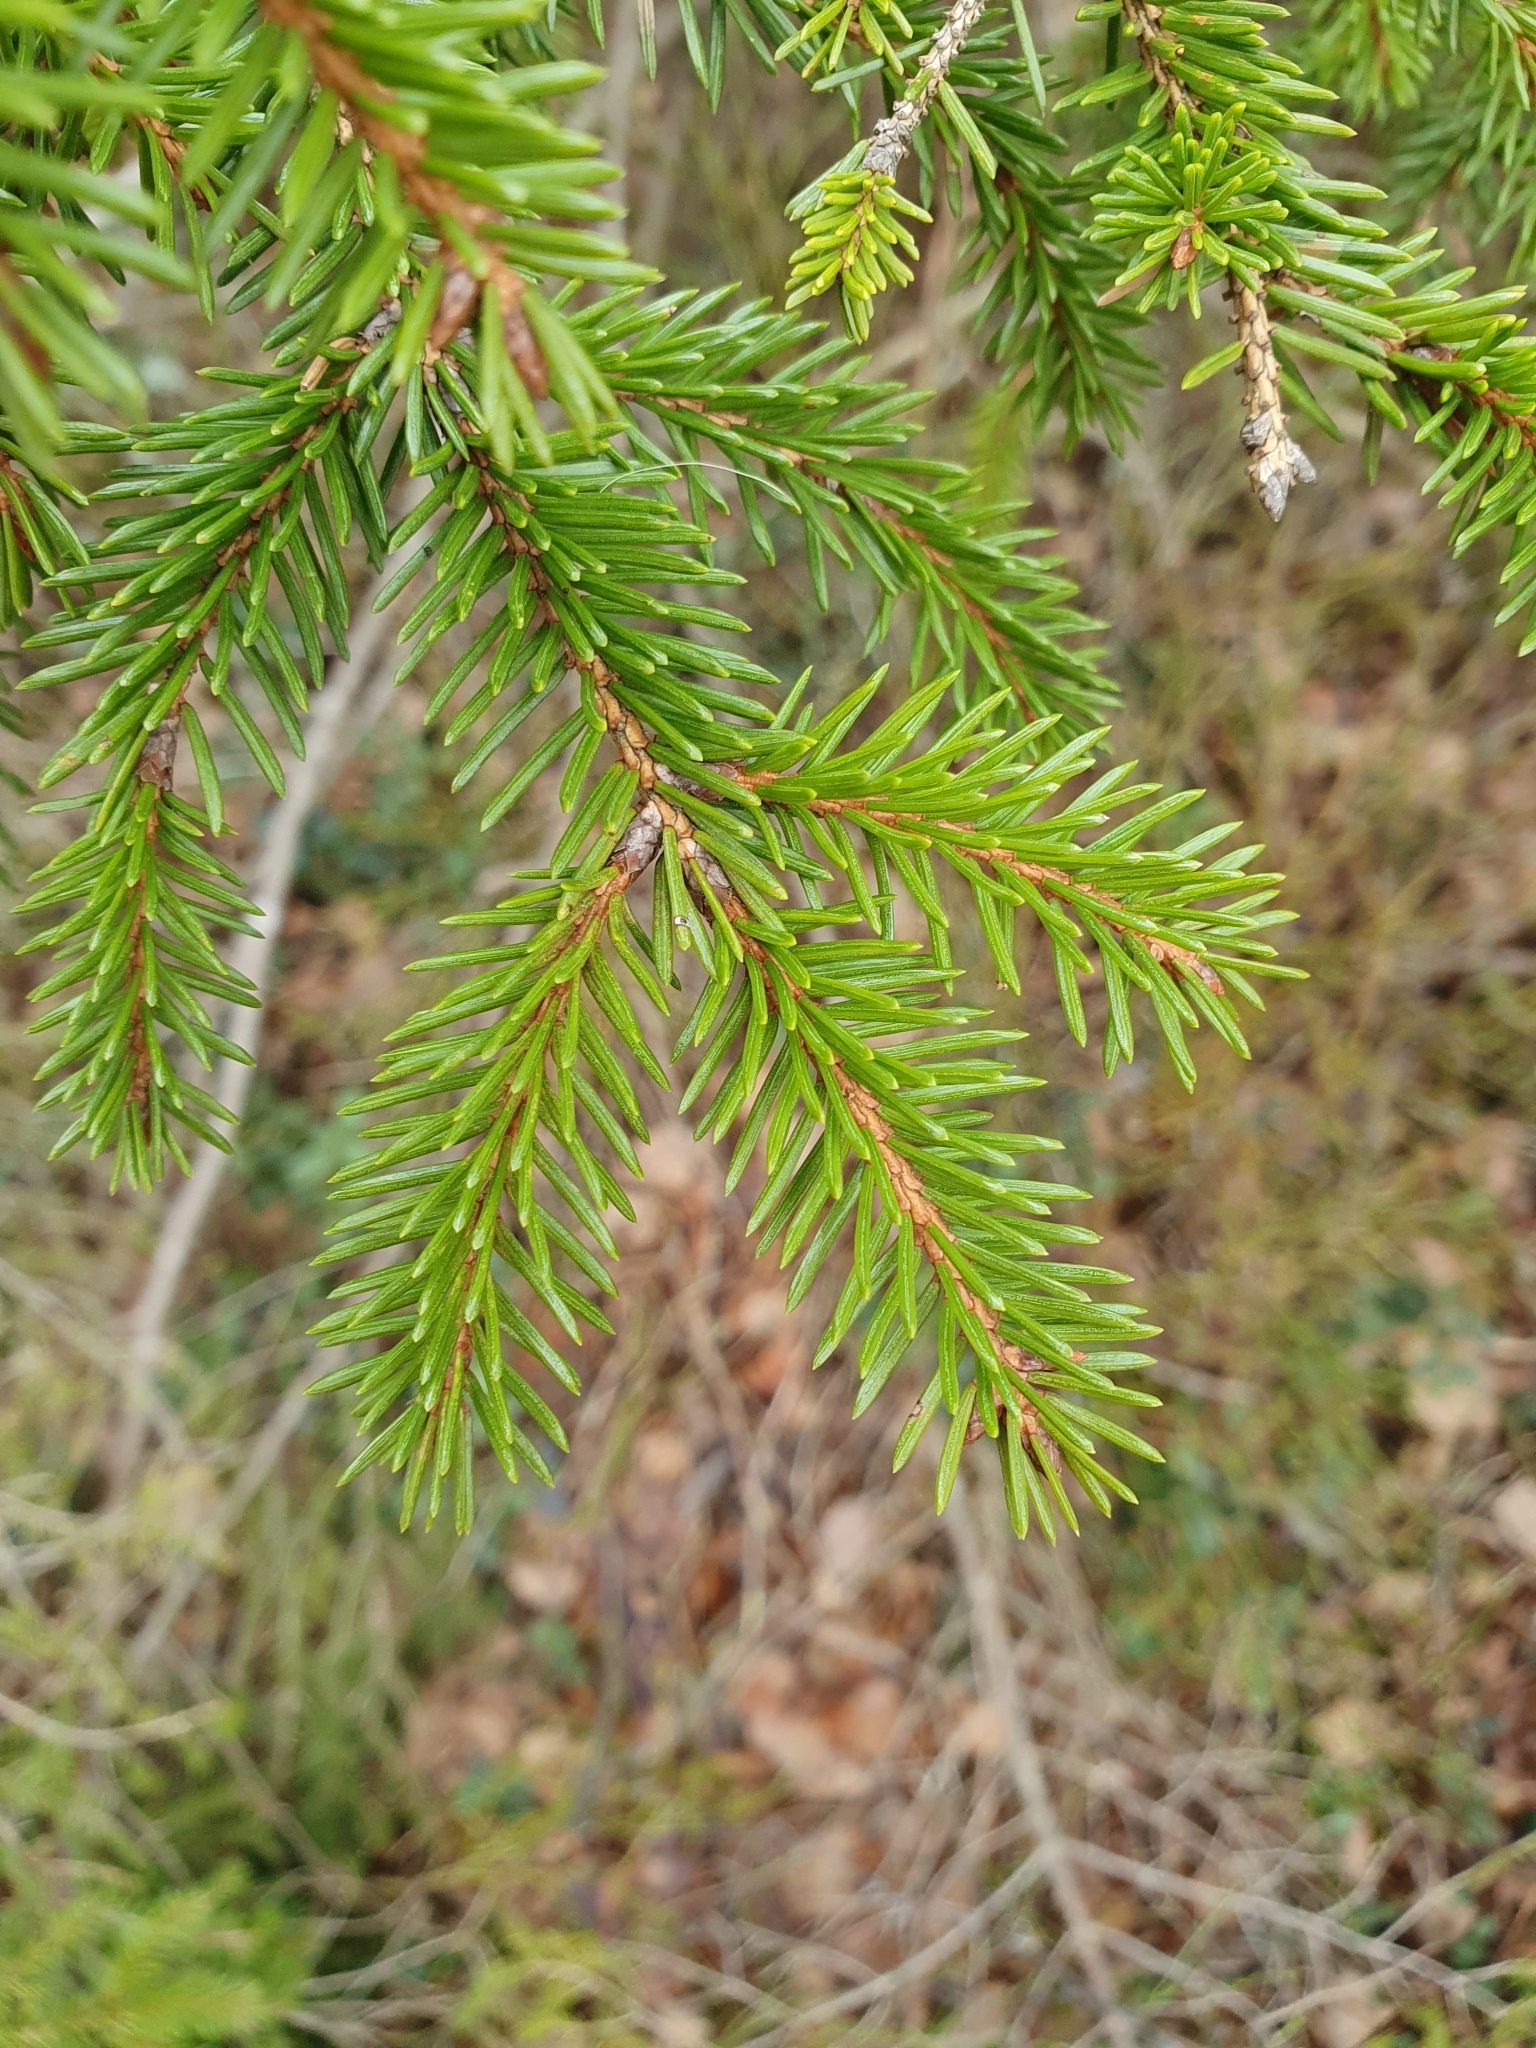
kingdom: Plantae
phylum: Tracheophyta
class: Pinopsida
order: Pinales
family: Pinaceae
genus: Picea
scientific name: Picea abies
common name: Norway spruce
